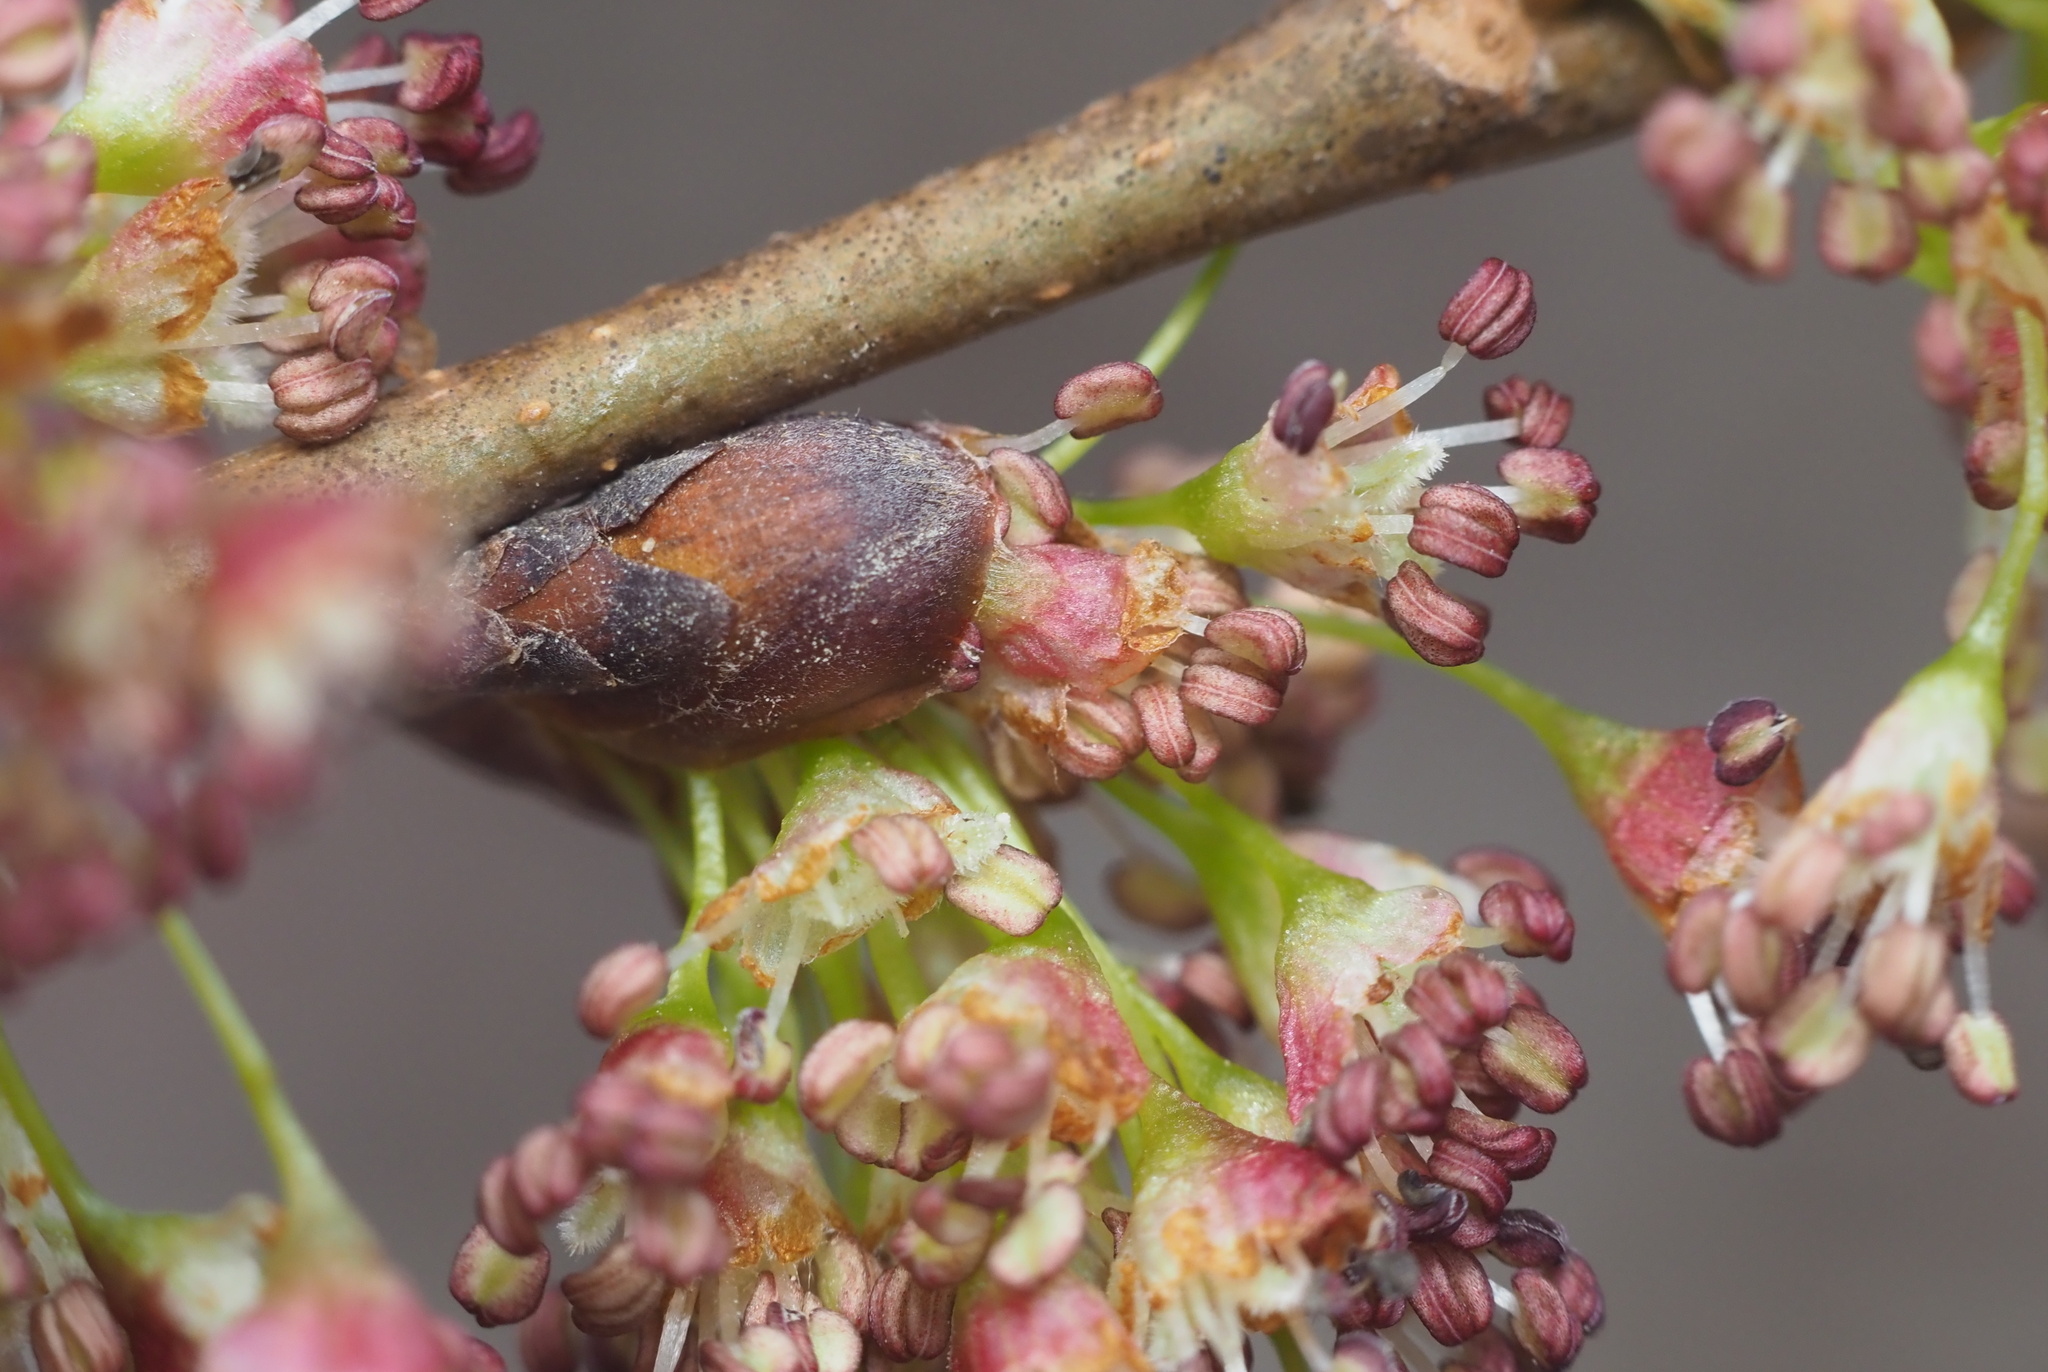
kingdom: Plantae
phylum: Tracheophyta
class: Magnoliopsida
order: Rosales
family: Ulmaceae
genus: Ulmus
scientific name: Ulmus americana
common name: American elm
